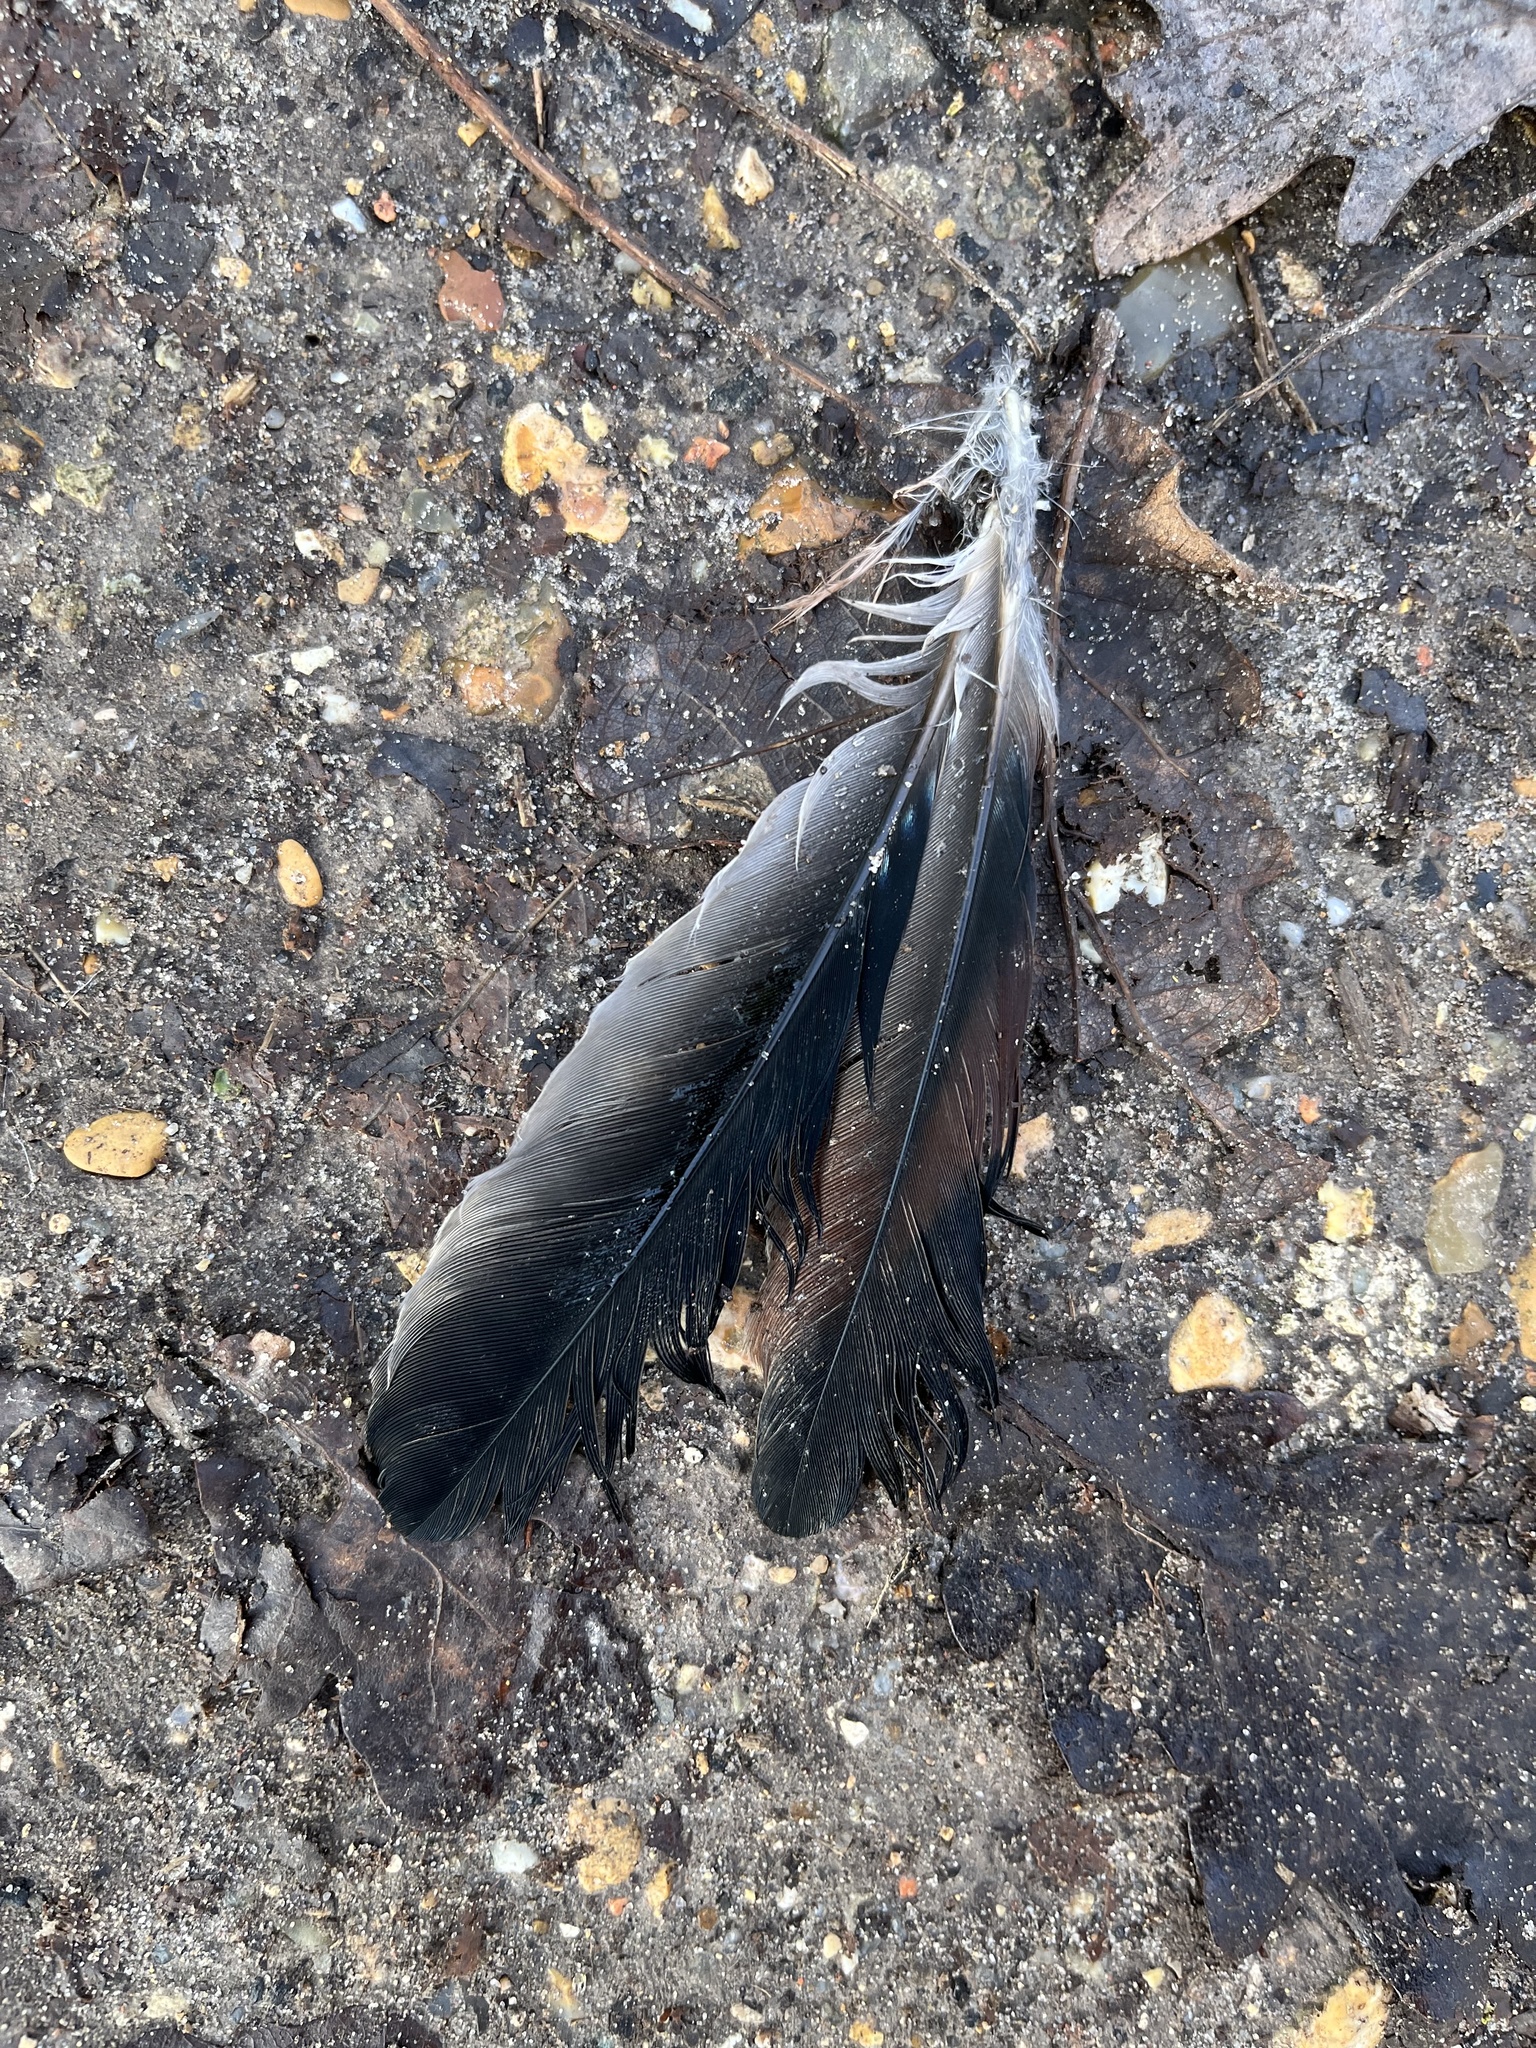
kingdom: Animalia
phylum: Chordata
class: Aves
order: Passeriformes
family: Corvidae
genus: Garrulus
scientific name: Garrulus glandarius
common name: Eurasian jay
